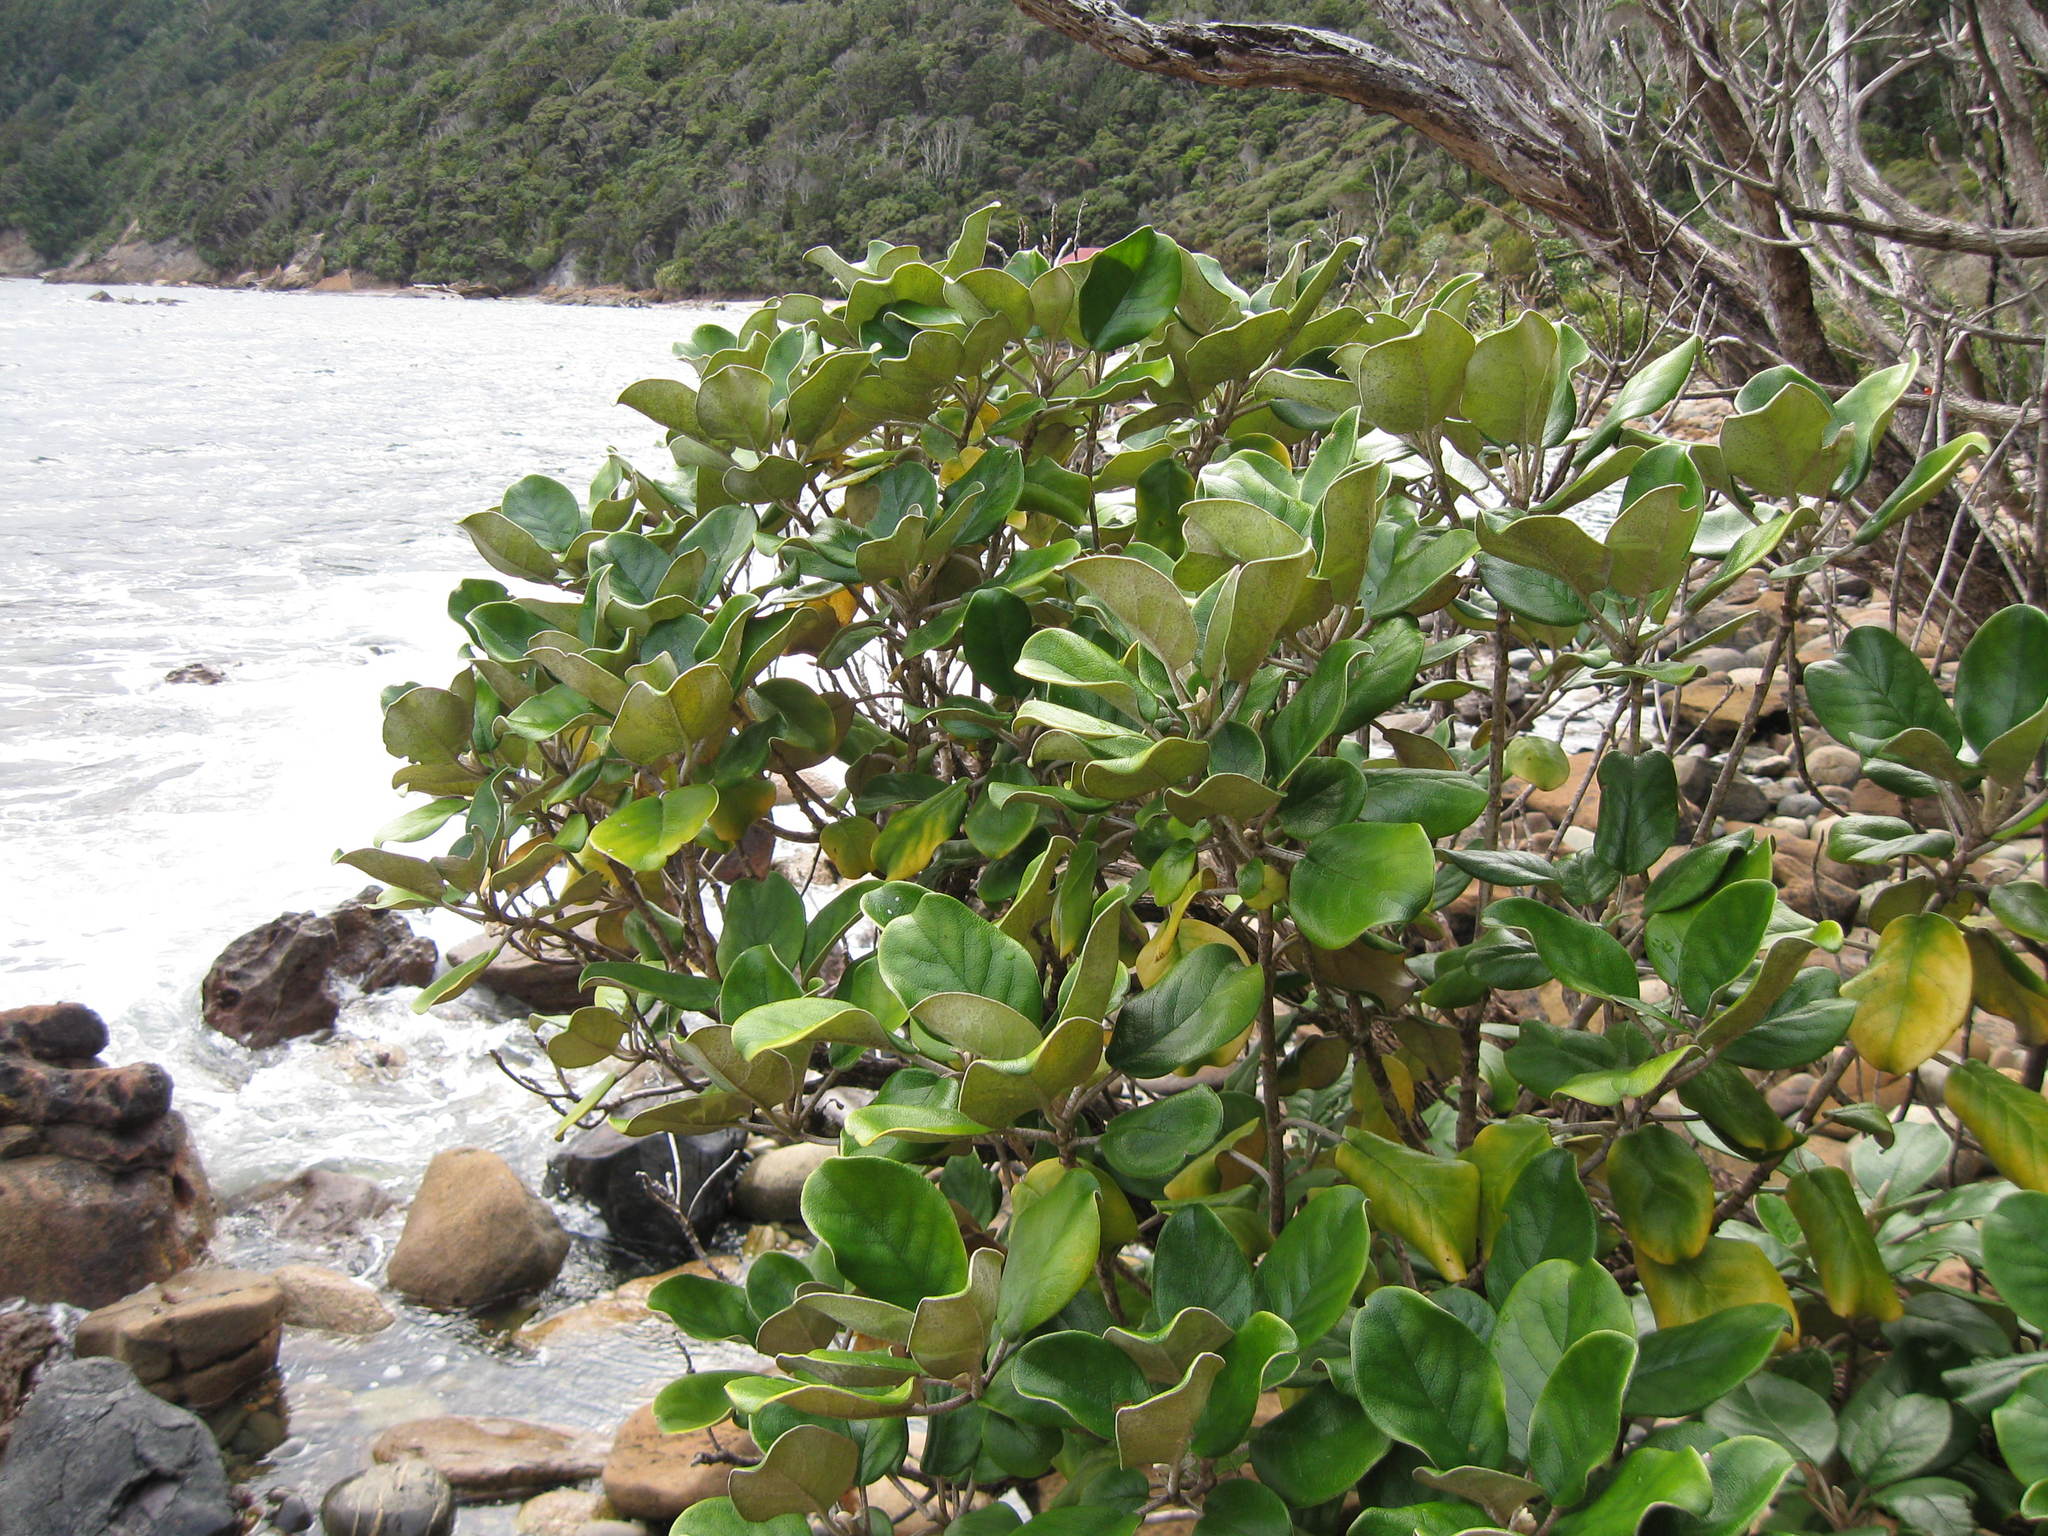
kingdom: Plantae
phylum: Tracheophyta
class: Magnoliopsida
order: Asterales
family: Asteraceae
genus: Brachyglottis
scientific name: Brachyglottis rotundifolia
